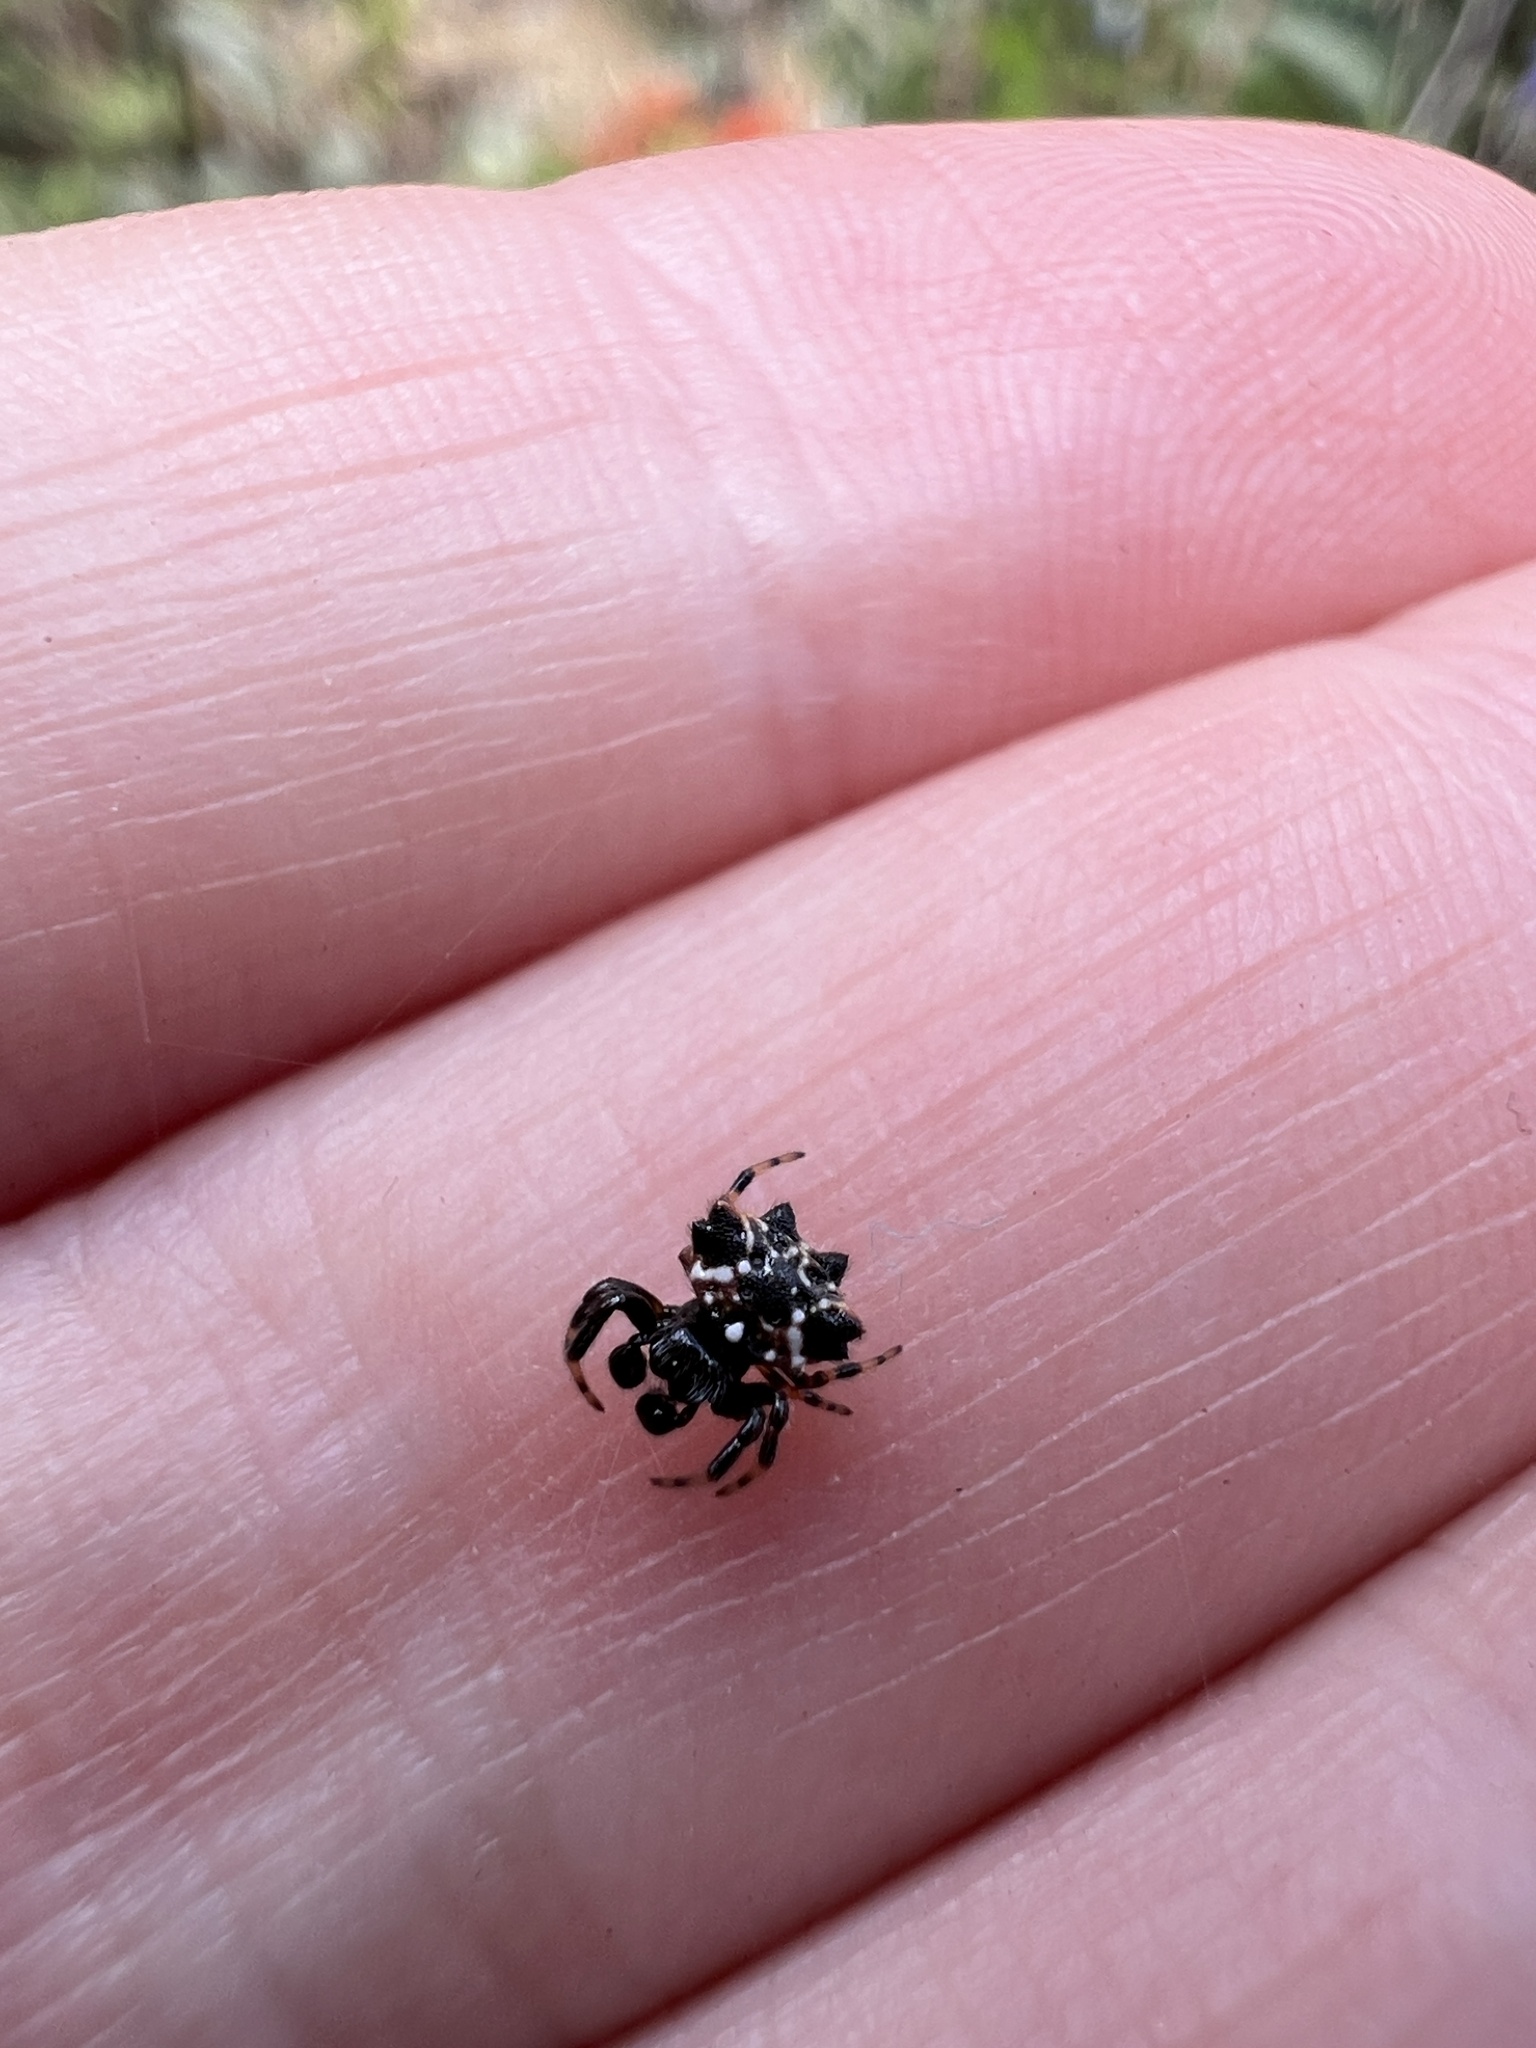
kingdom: Animalia
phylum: Arthropoda
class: Arachnida
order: Araneae
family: Araneidae
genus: Austracantha
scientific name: Austracantha minax
